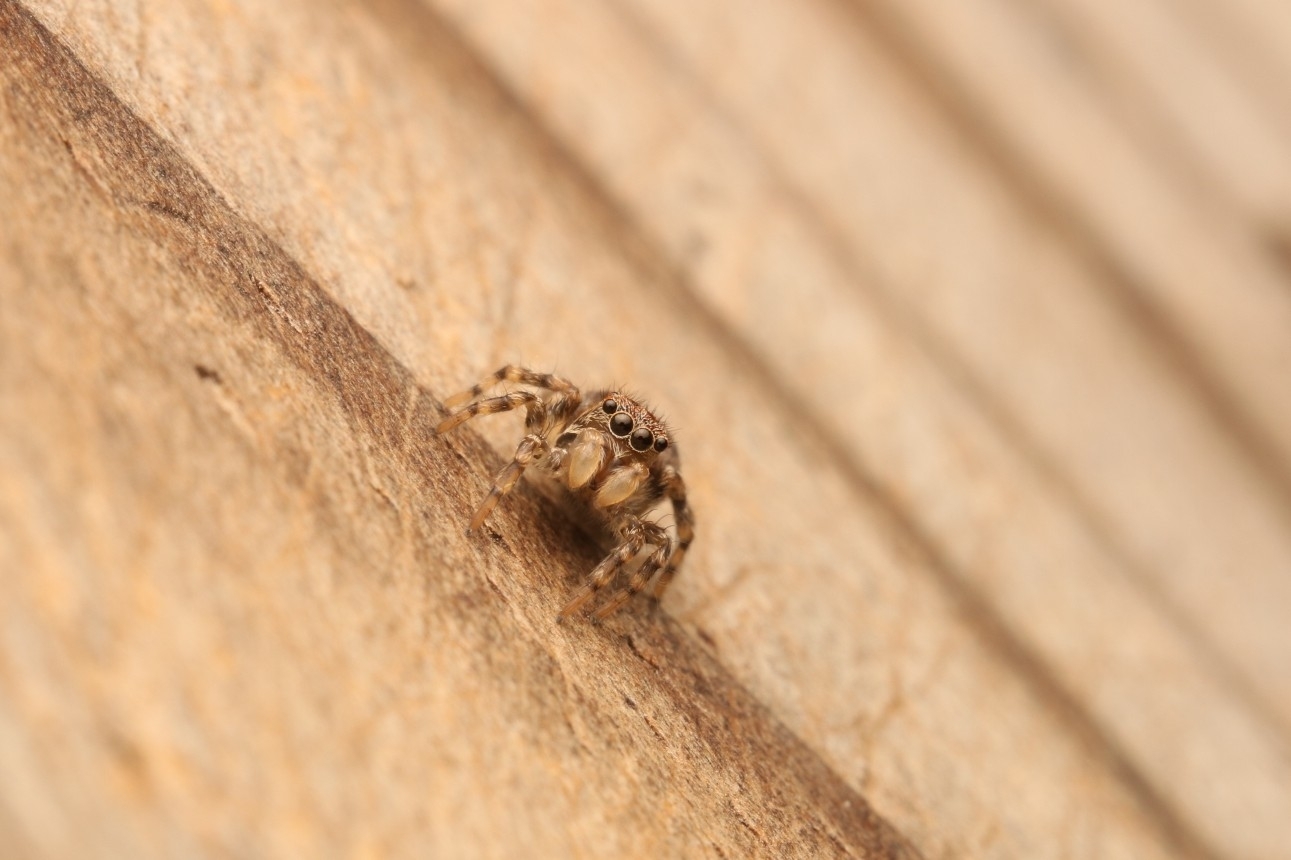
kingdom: Animalia
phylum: Arthropoda
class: Arachnida
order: Araneae
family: Salticidae
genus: Naphrys
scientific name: Naphrys pulex
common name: Flea jumping spider
